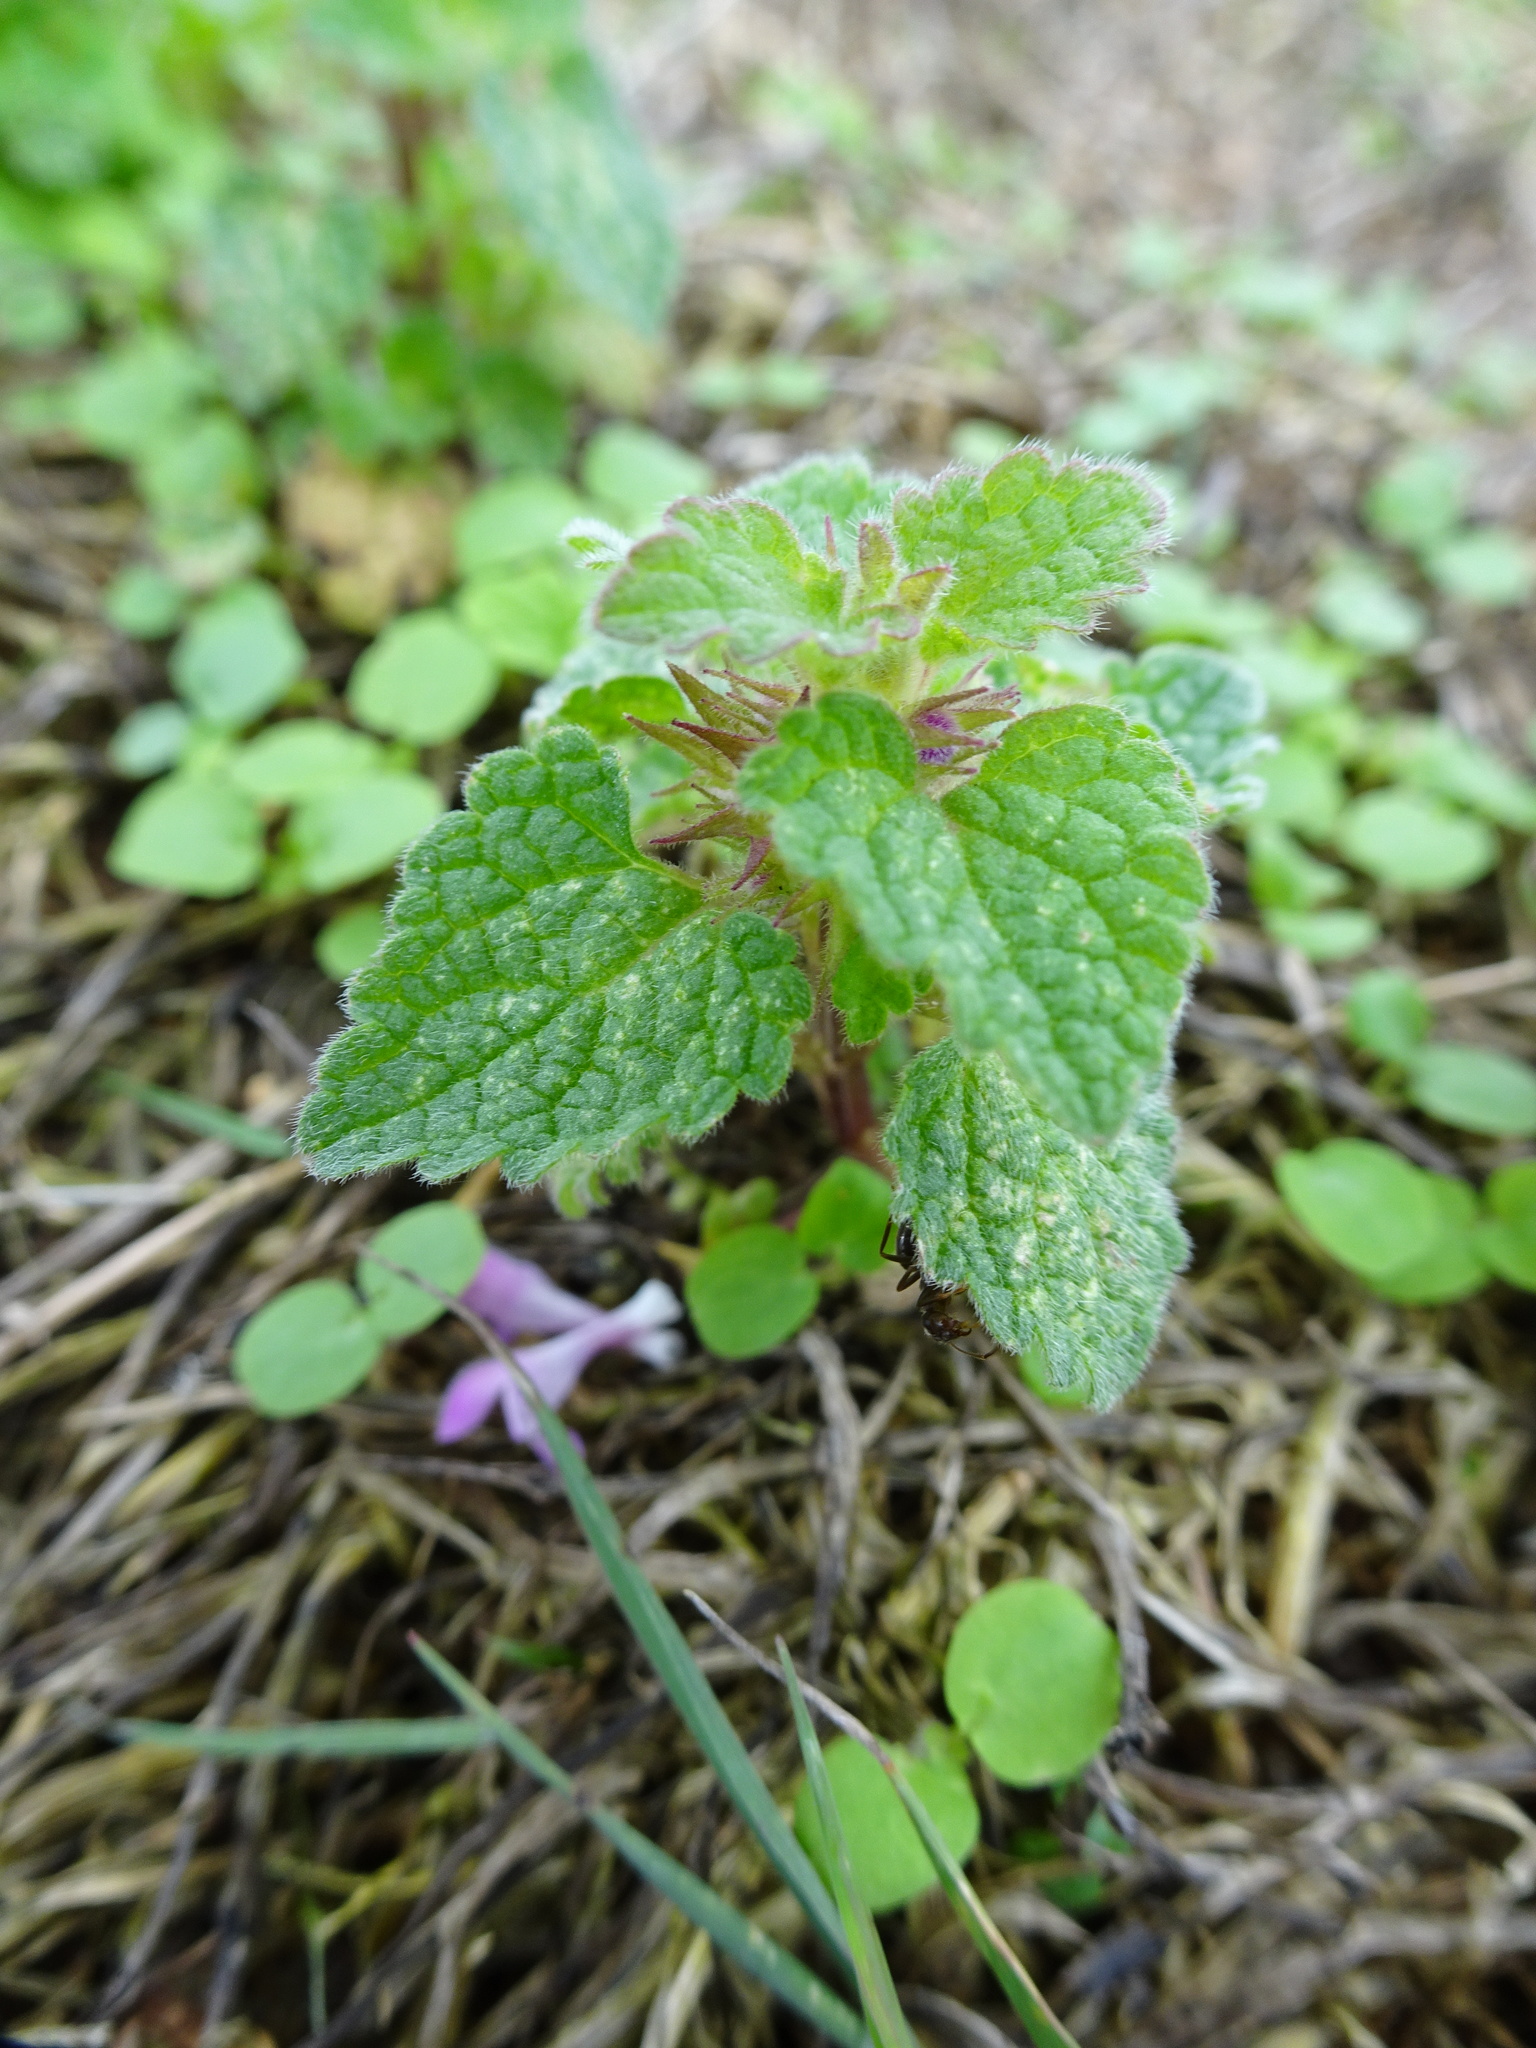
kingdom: Plantae
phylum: Tracheophyta
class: Magnoliopsida
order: Lamiales
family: Lamiaceae
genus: Lamium
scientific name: Lamium purpureum
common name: Red dead-nettle
